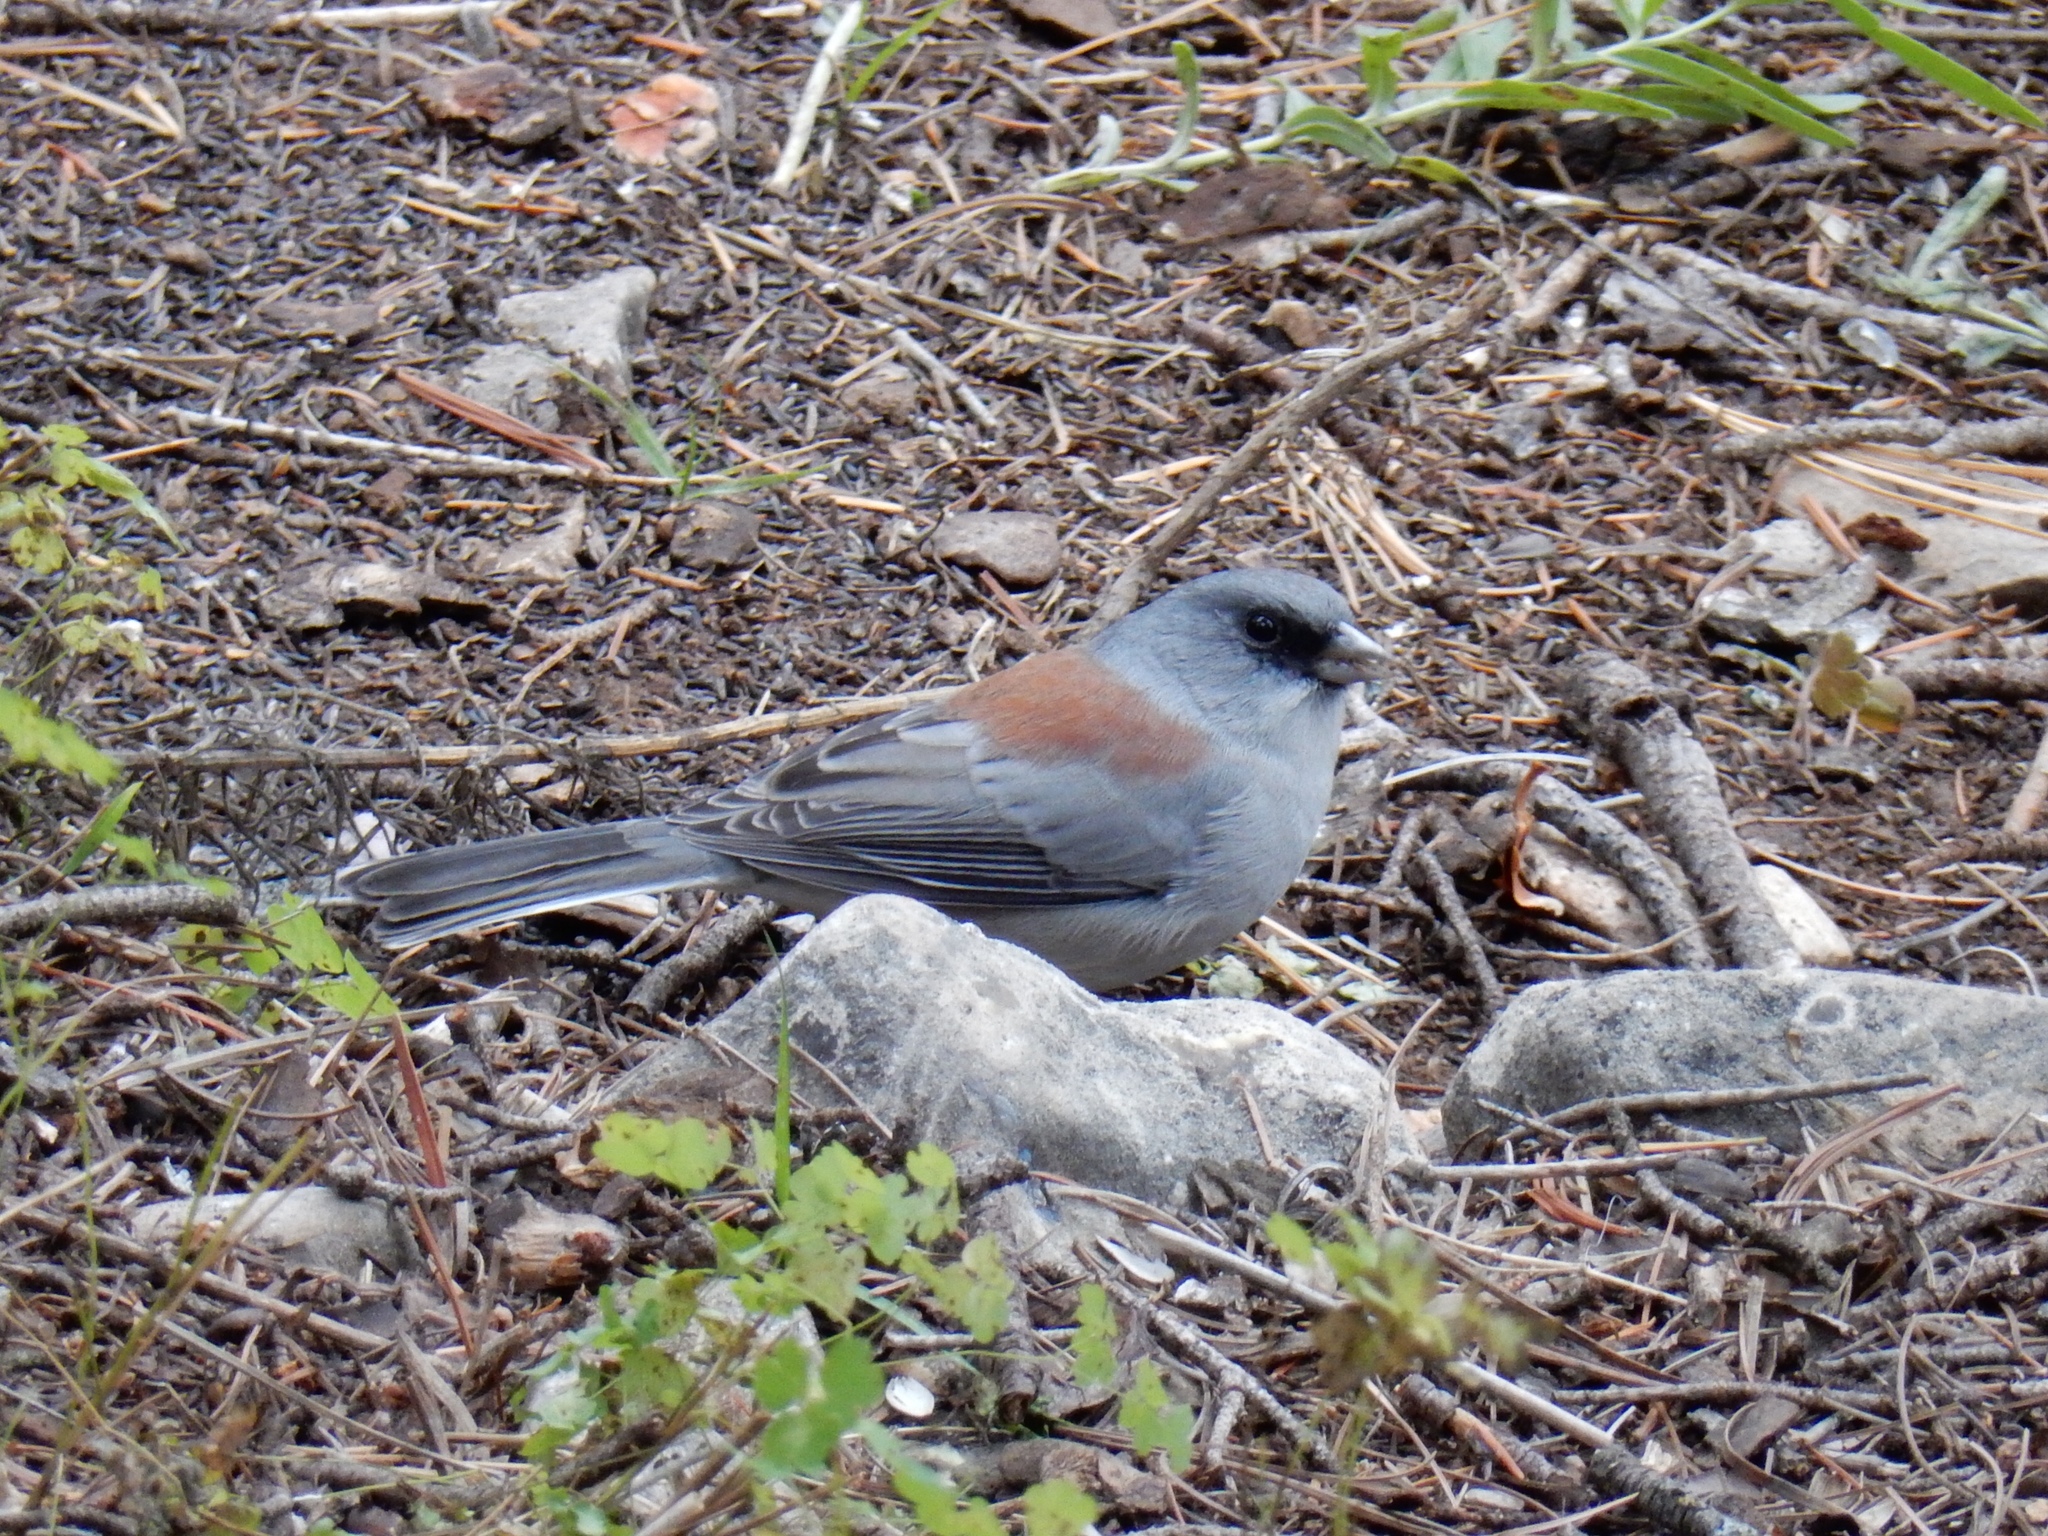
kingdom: Animalia
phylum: Chordata
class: Aves
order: Passeriformes
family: Passerellidae
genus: Junco
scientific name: Junco hyemalis
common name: Dark-eyed junco
